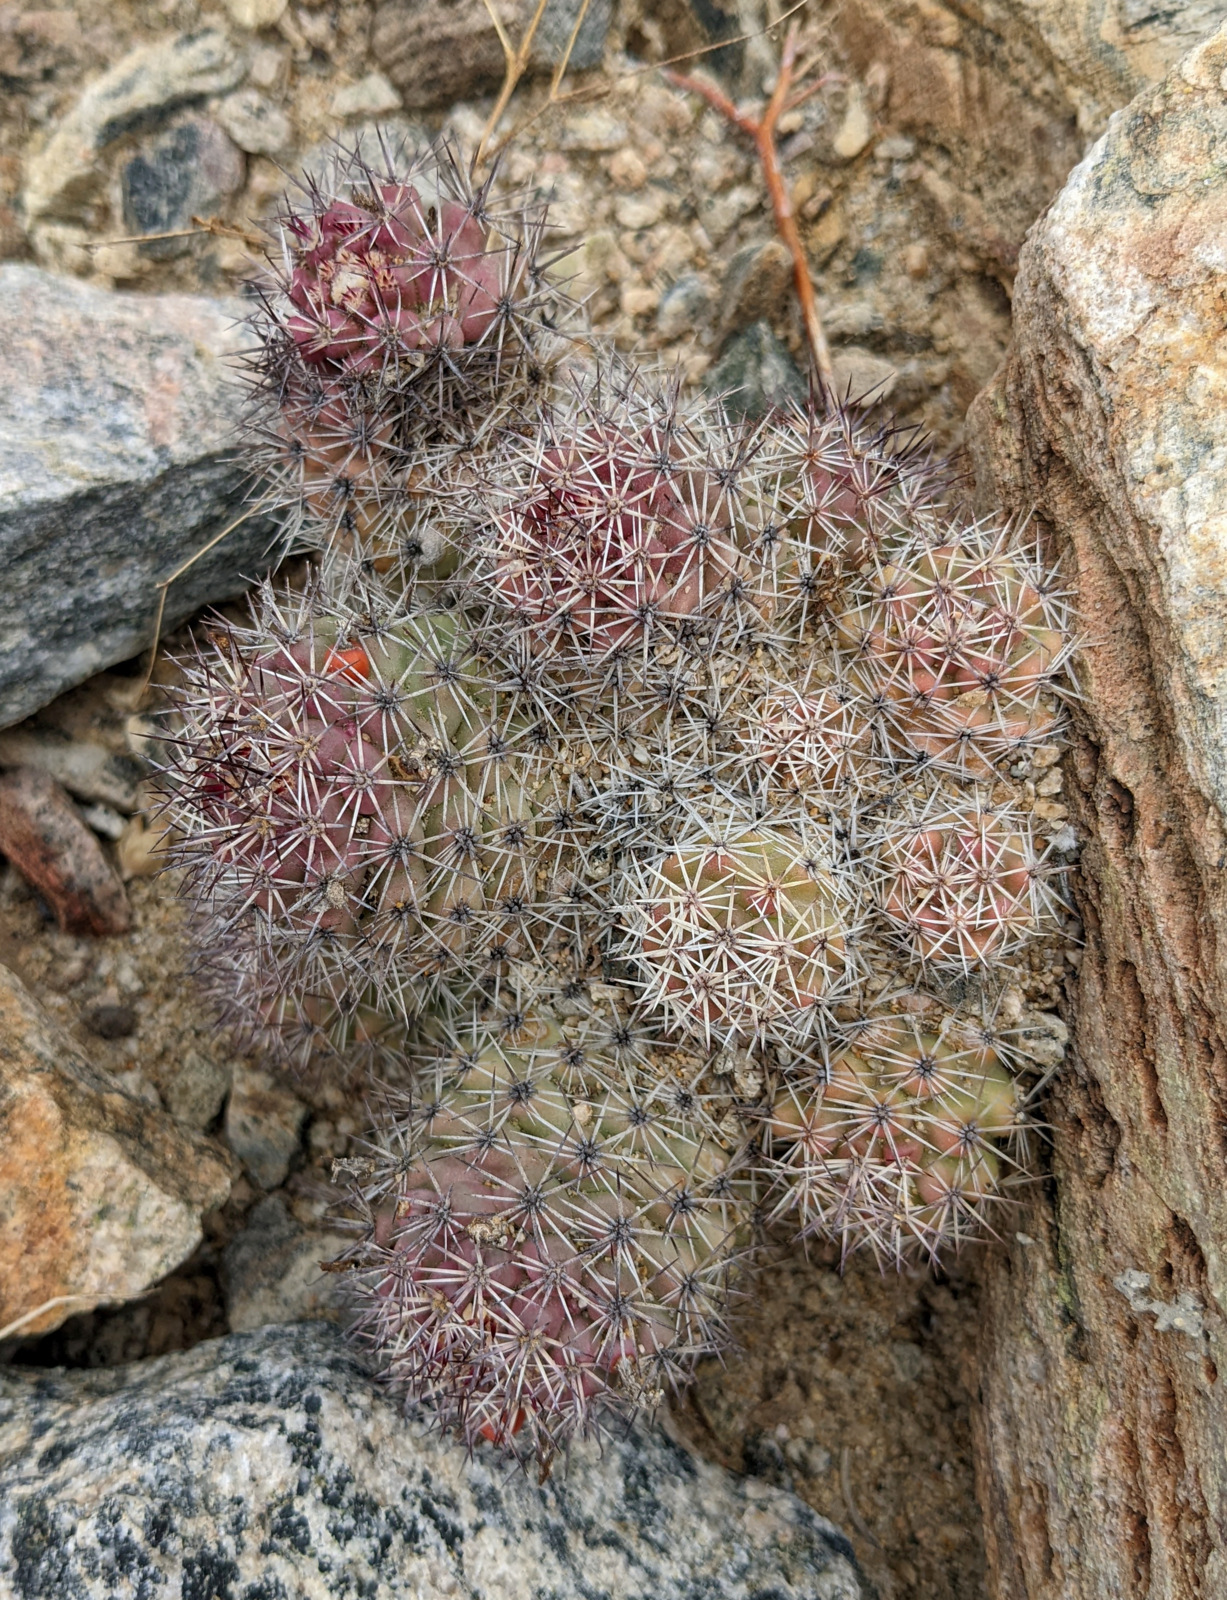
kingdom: Plantae
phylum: Tracheophyta
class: Magnoliopsida
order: Caryophyllales
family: Cactaceae
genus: Cochemiea
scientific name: Cochemiea fraileana
